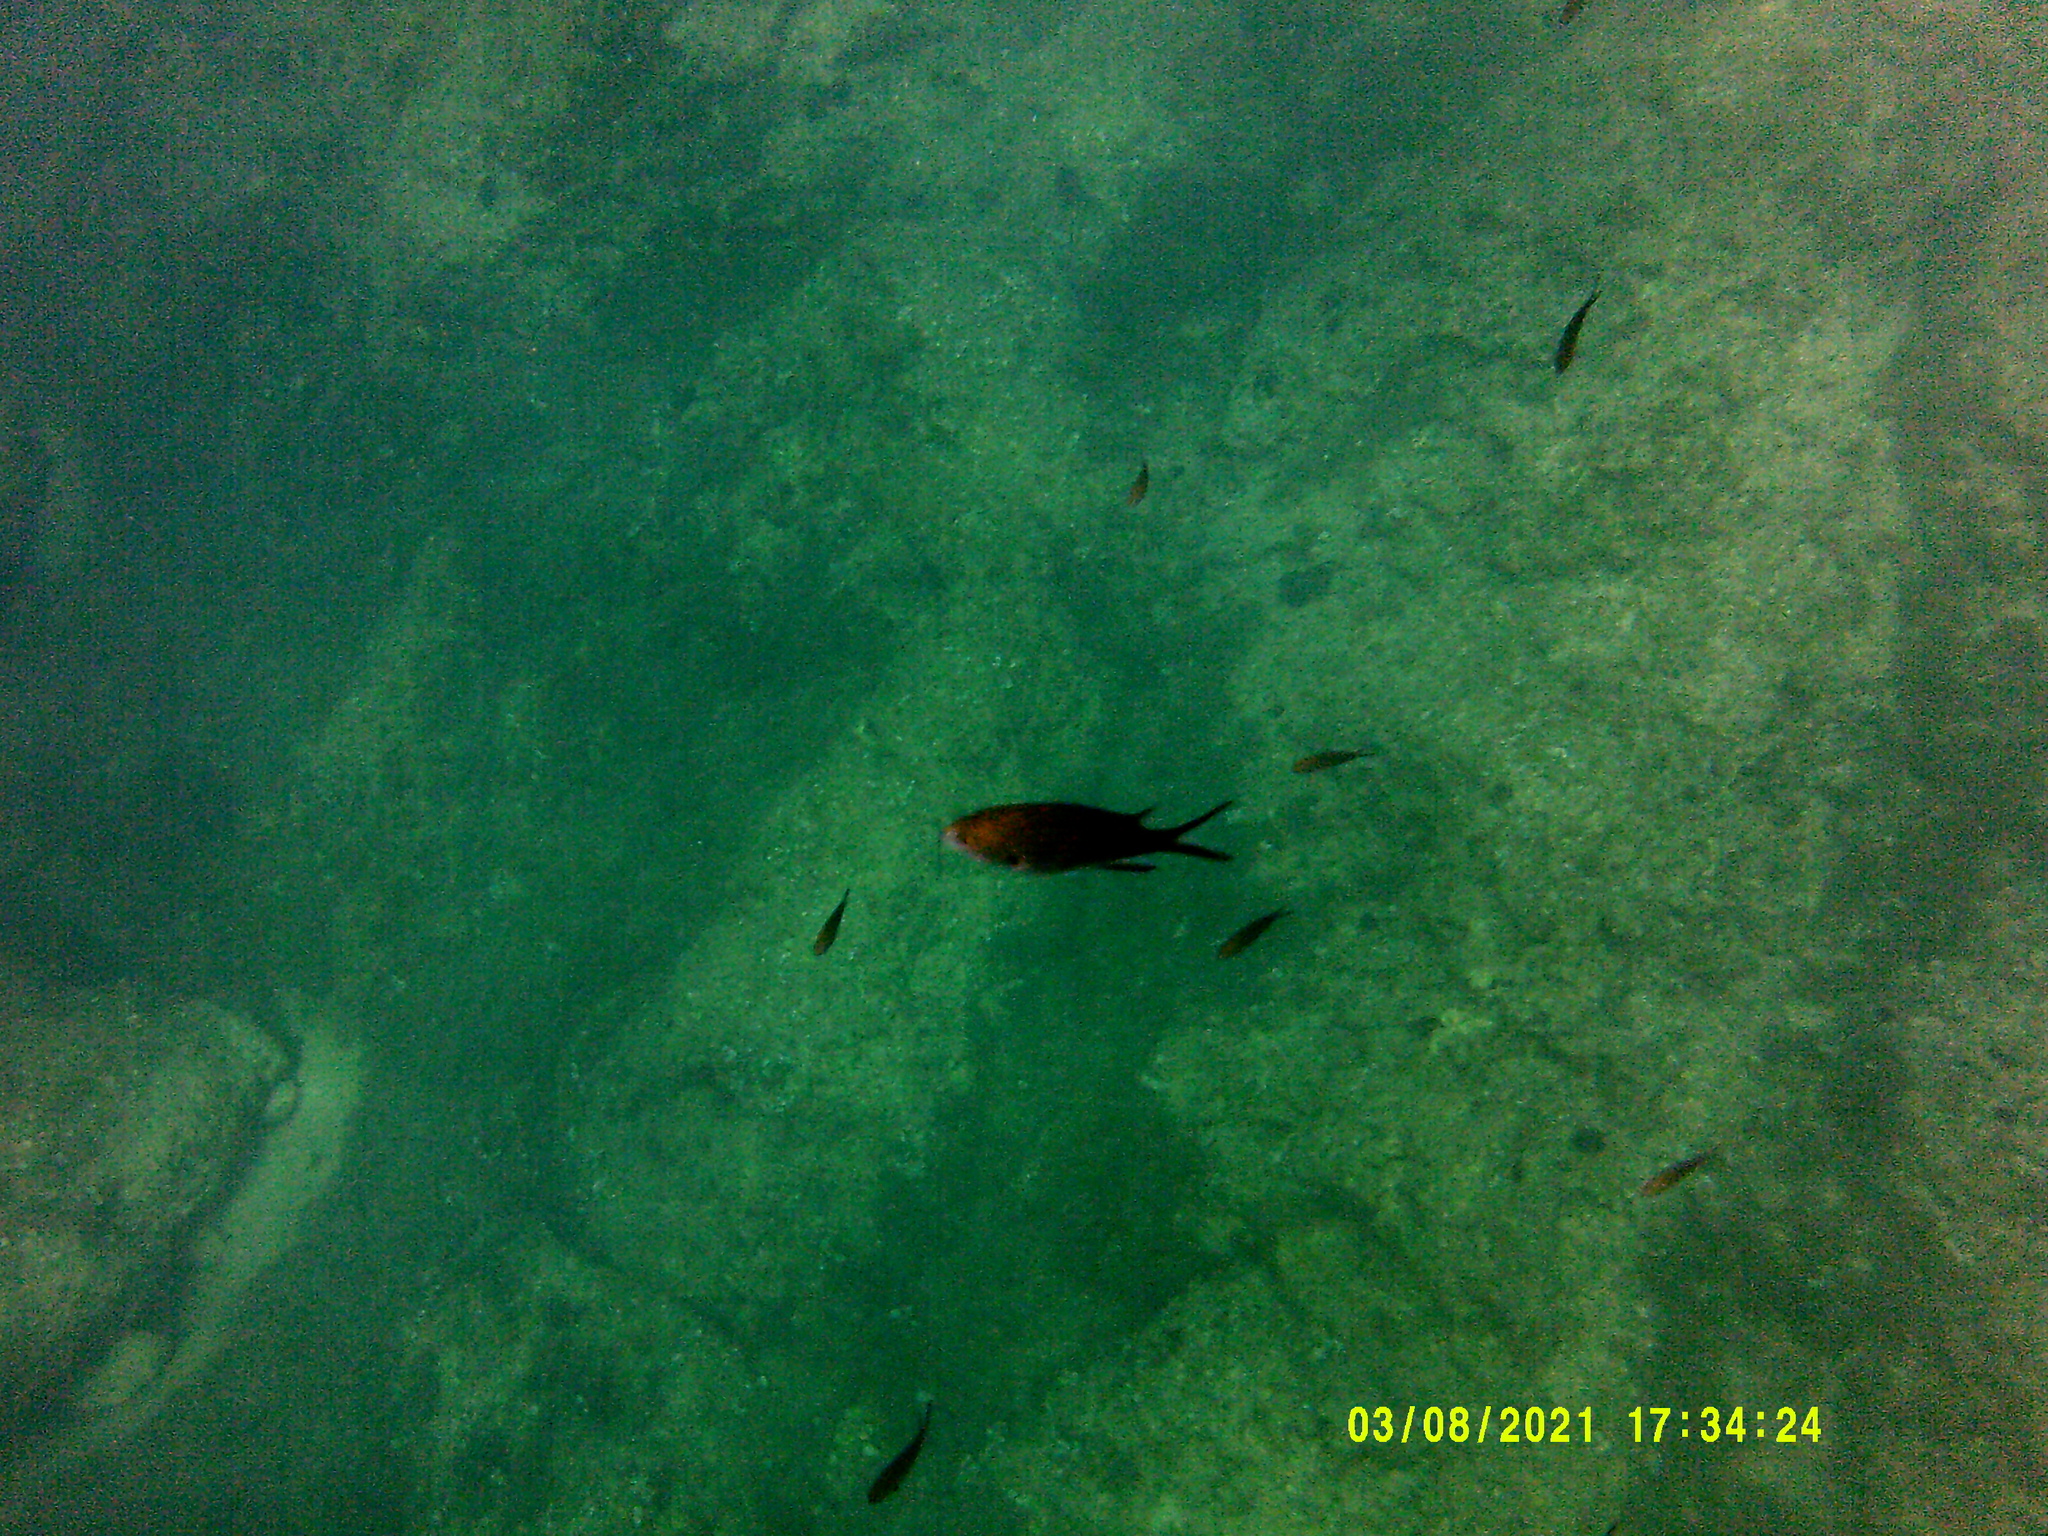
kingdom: Animalia
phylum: Chordata
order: Perciformes
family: Pomacentridae
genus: Chromis
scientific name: Chromis chromis
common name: Damselfish
